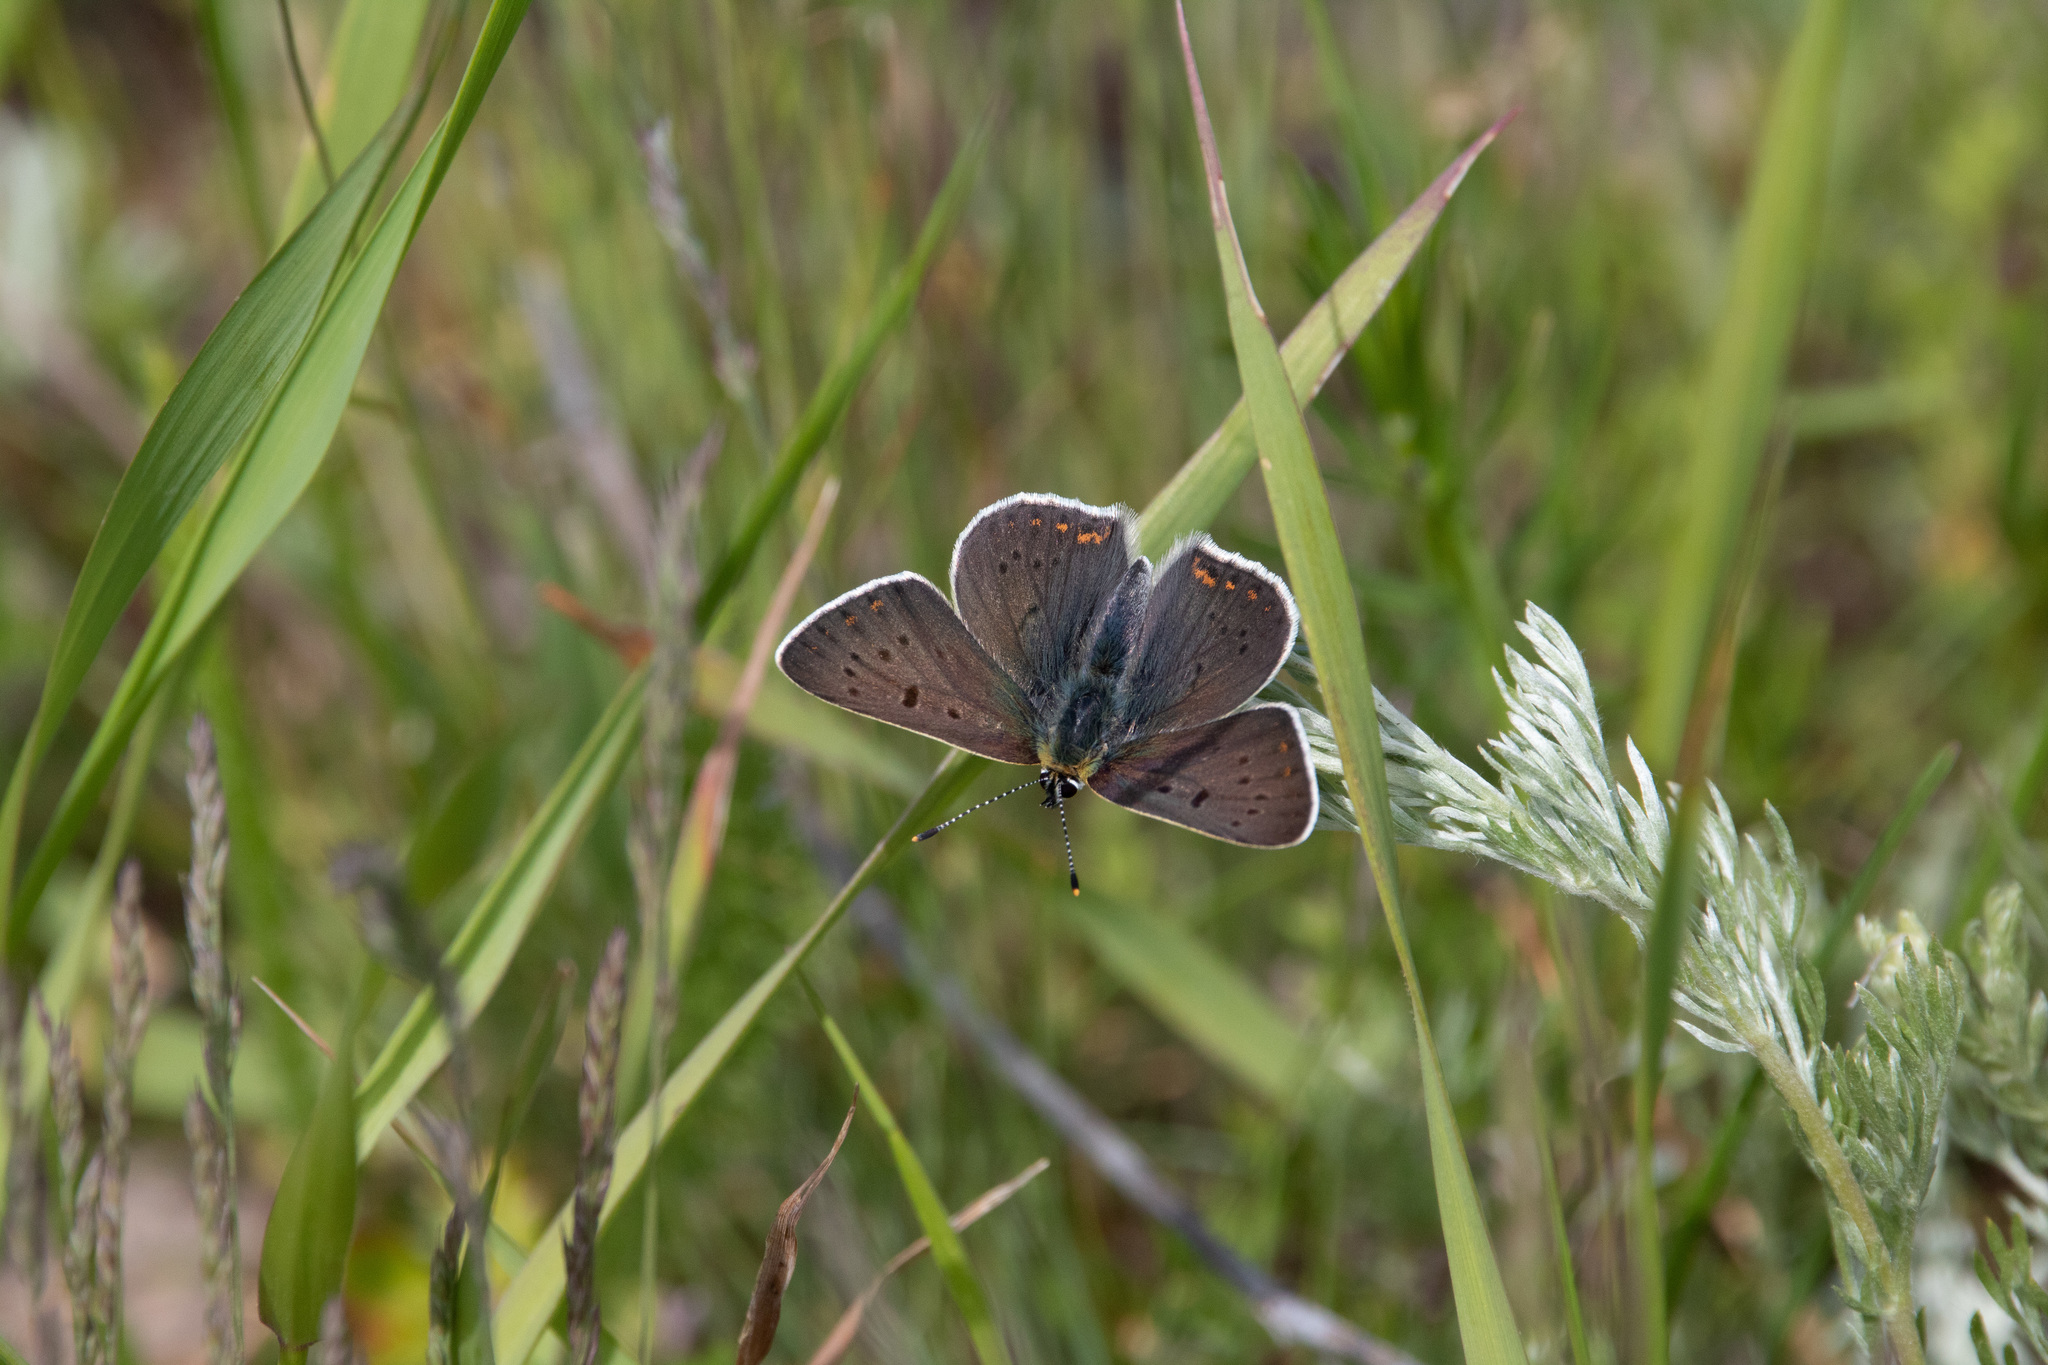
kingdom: Animalia
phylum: Arthropoda
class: Insecta
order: Lepidoptera
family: Lycaenidae
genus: Loweia
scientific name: Loweia tityrus
